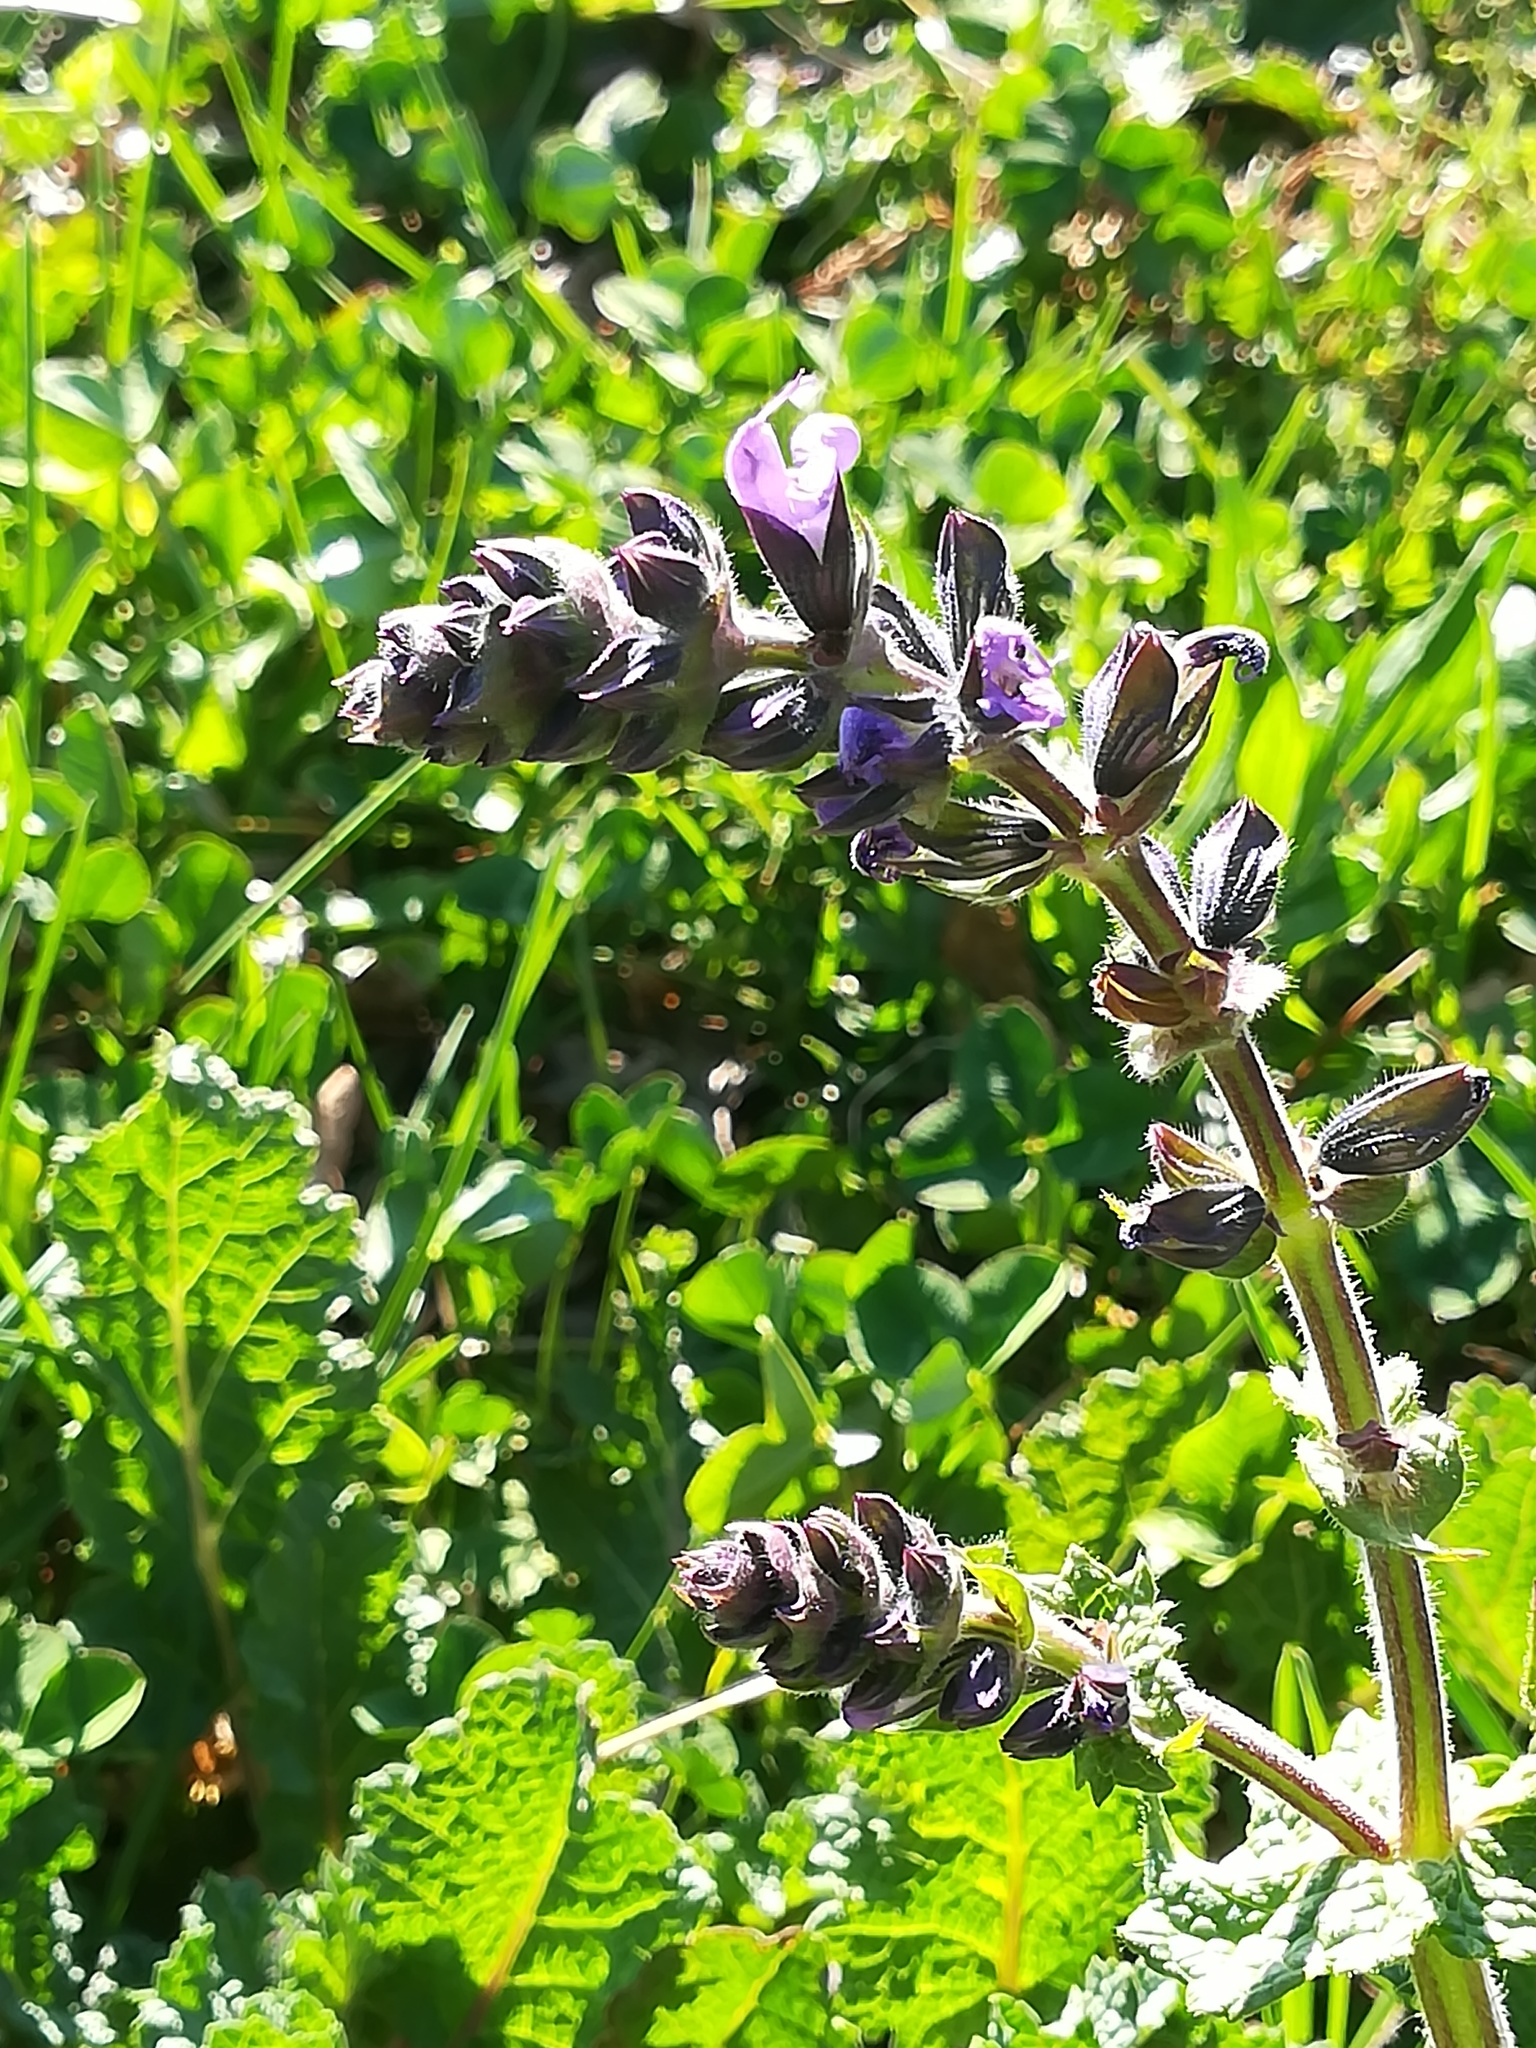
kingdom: Plantae
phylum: Tracheophyta
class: Magnoliopsida
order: Lamiales
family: Lamiaceae
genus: Salvia
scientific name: Salvia verbenaca
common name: Wild clary
